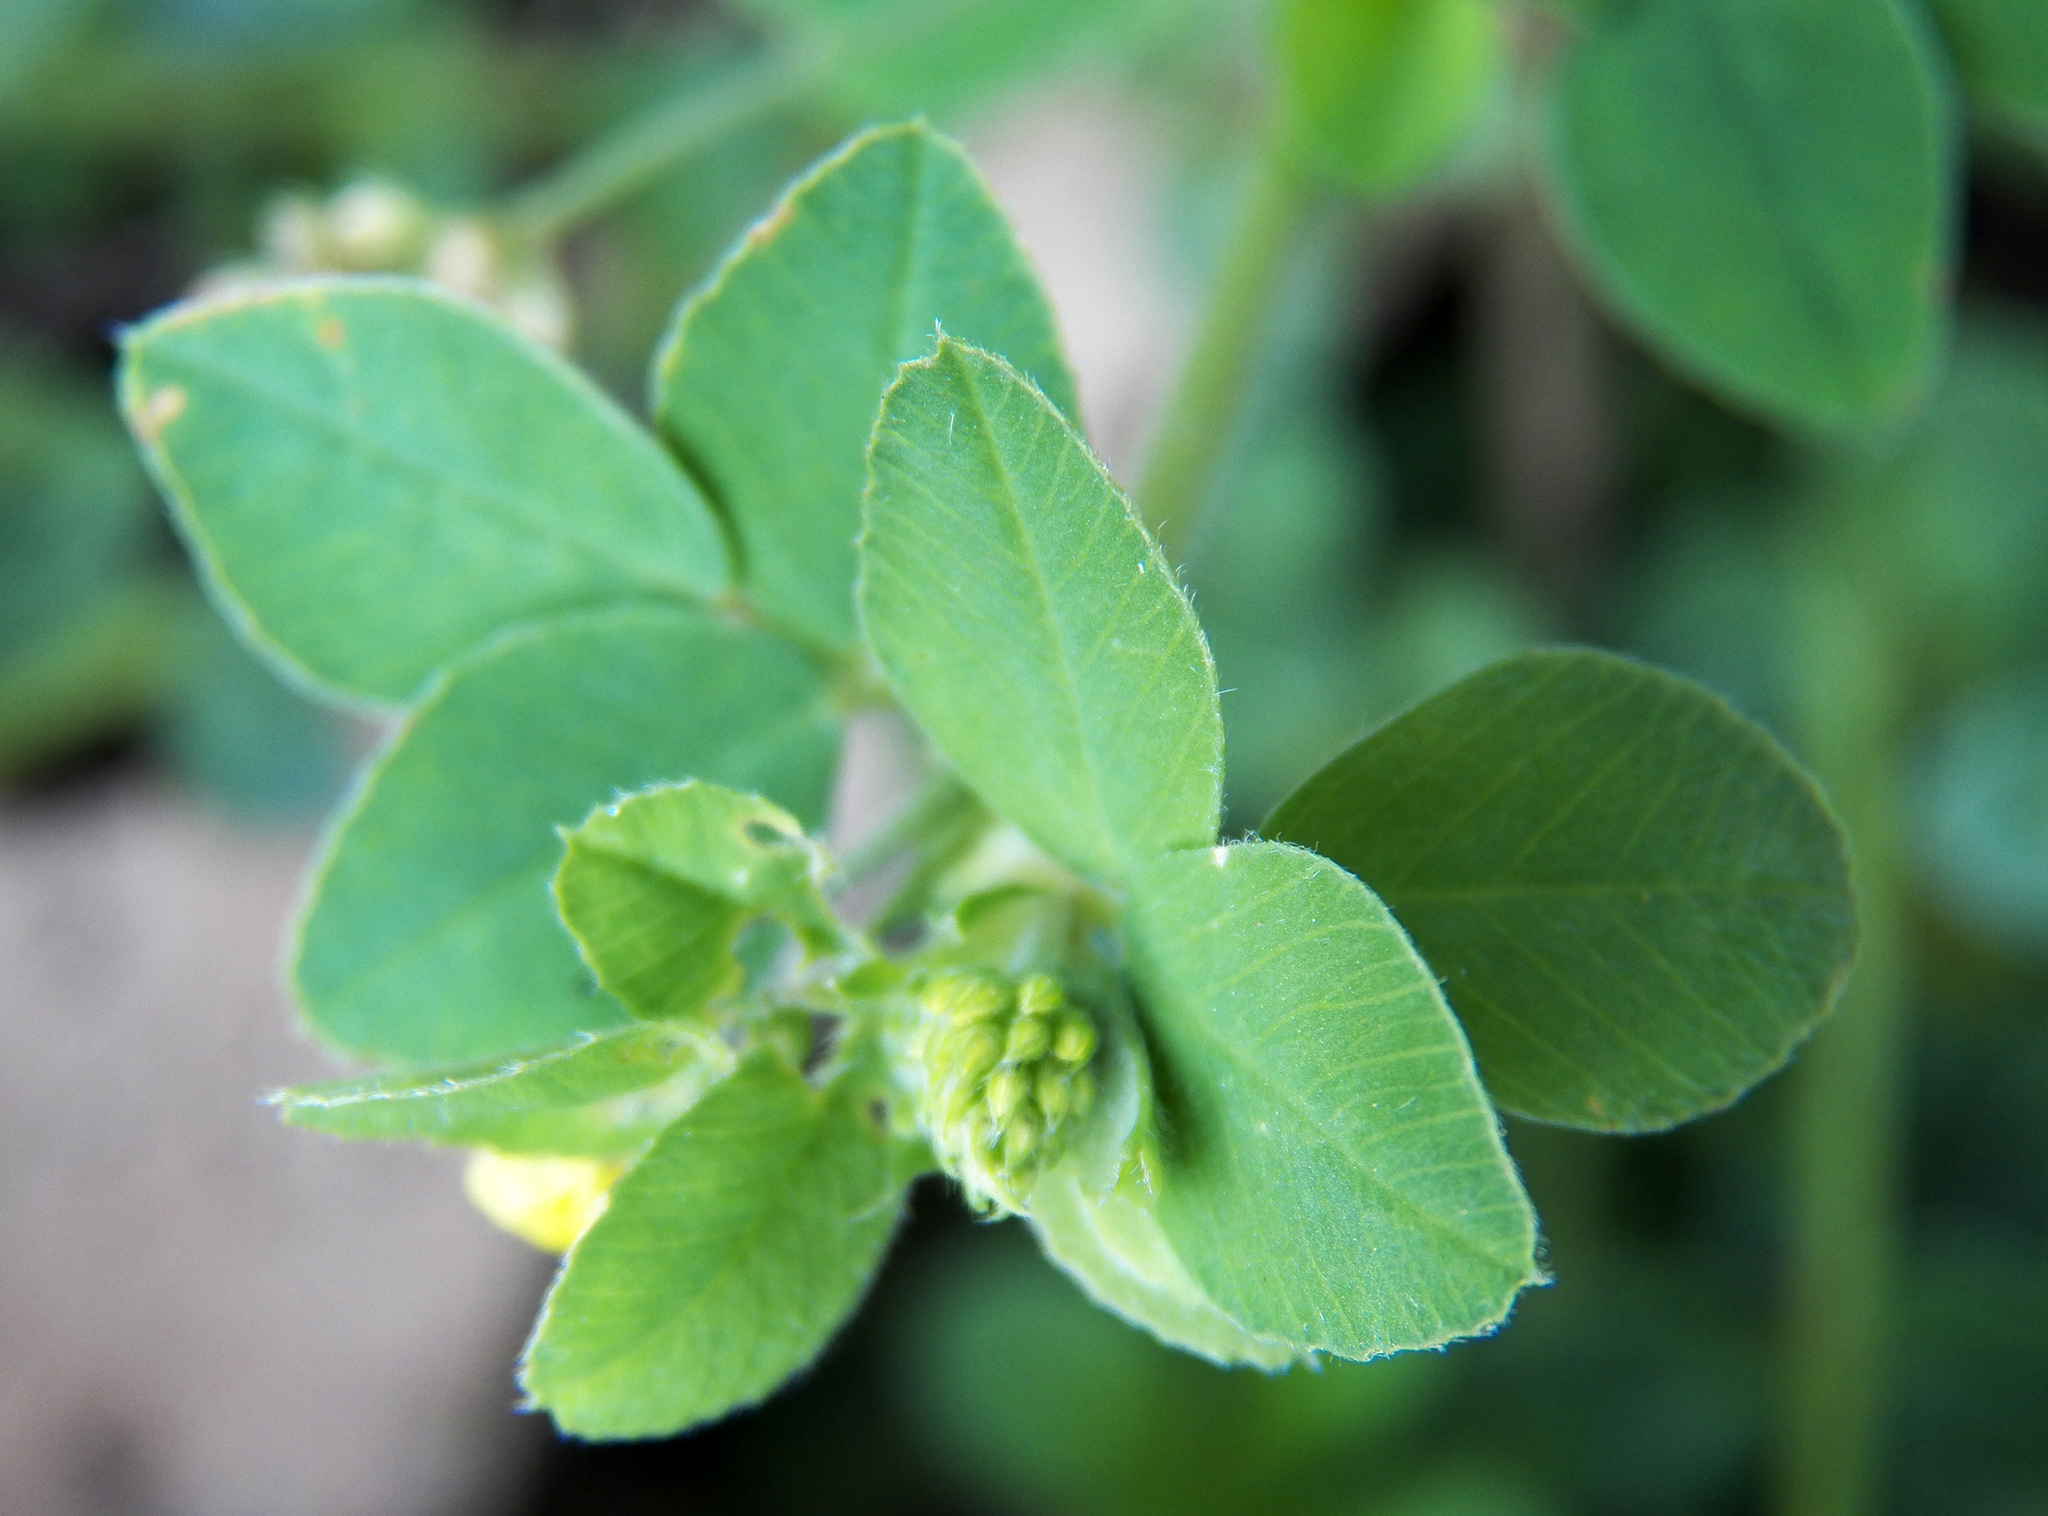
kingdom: Plantae
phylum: Tracheophyta
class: Magnoliopsida
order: Fabales
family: Fabaceae
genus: Medicago
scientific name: Medicago lupulina
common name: Black medick
